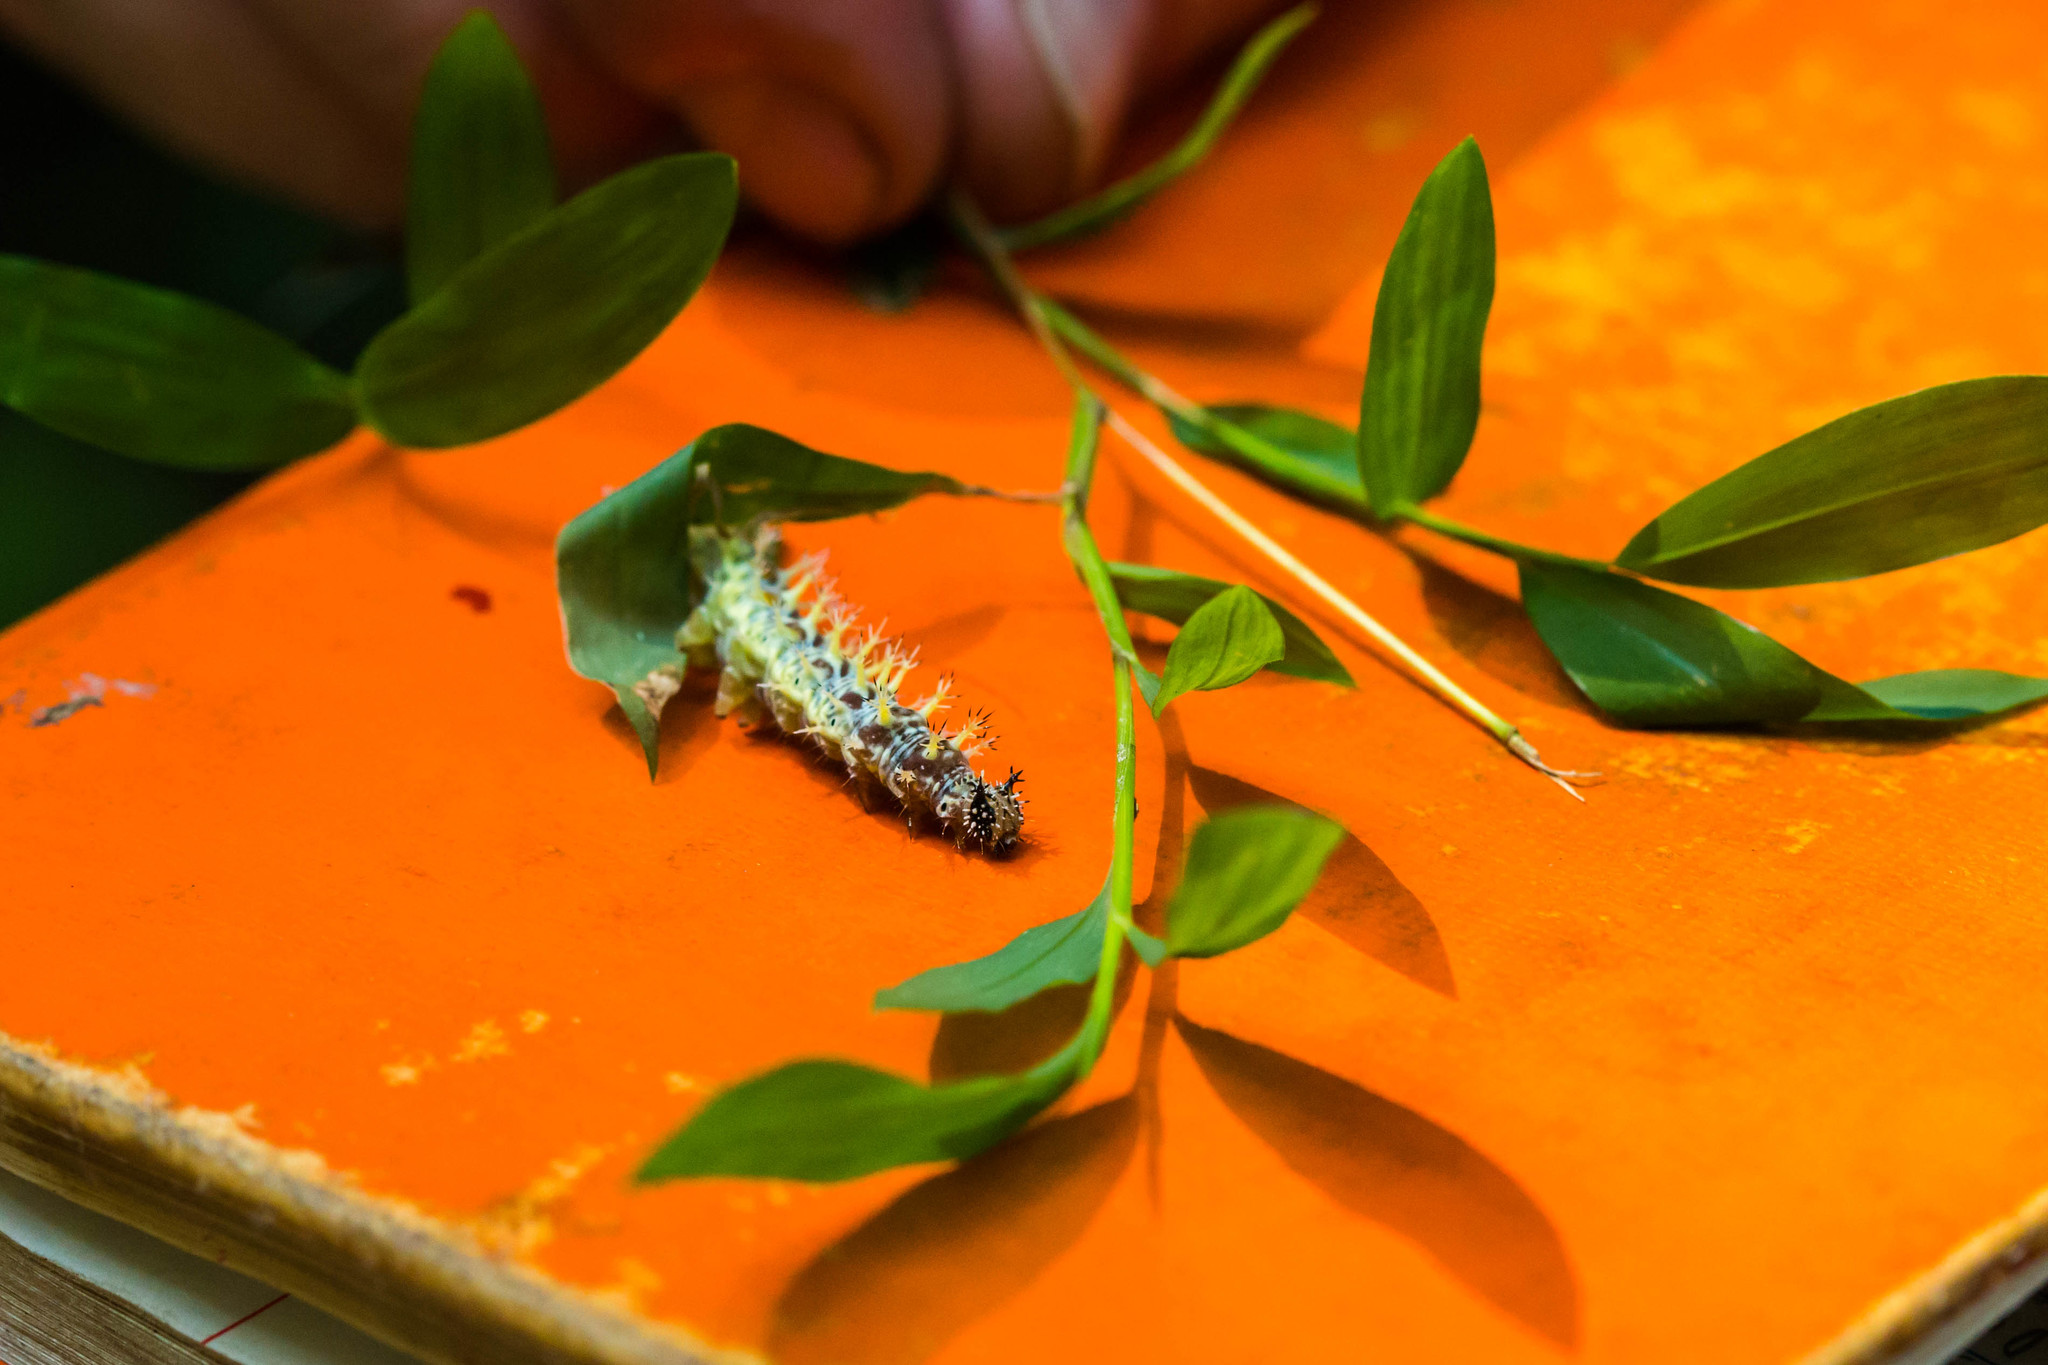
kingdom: Animalia
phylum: Arthropoda
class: Insecta
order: Lepidoptera
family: Nymphalidae
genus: Polygonia
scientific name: Polygonia comma
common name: Eastern comma
